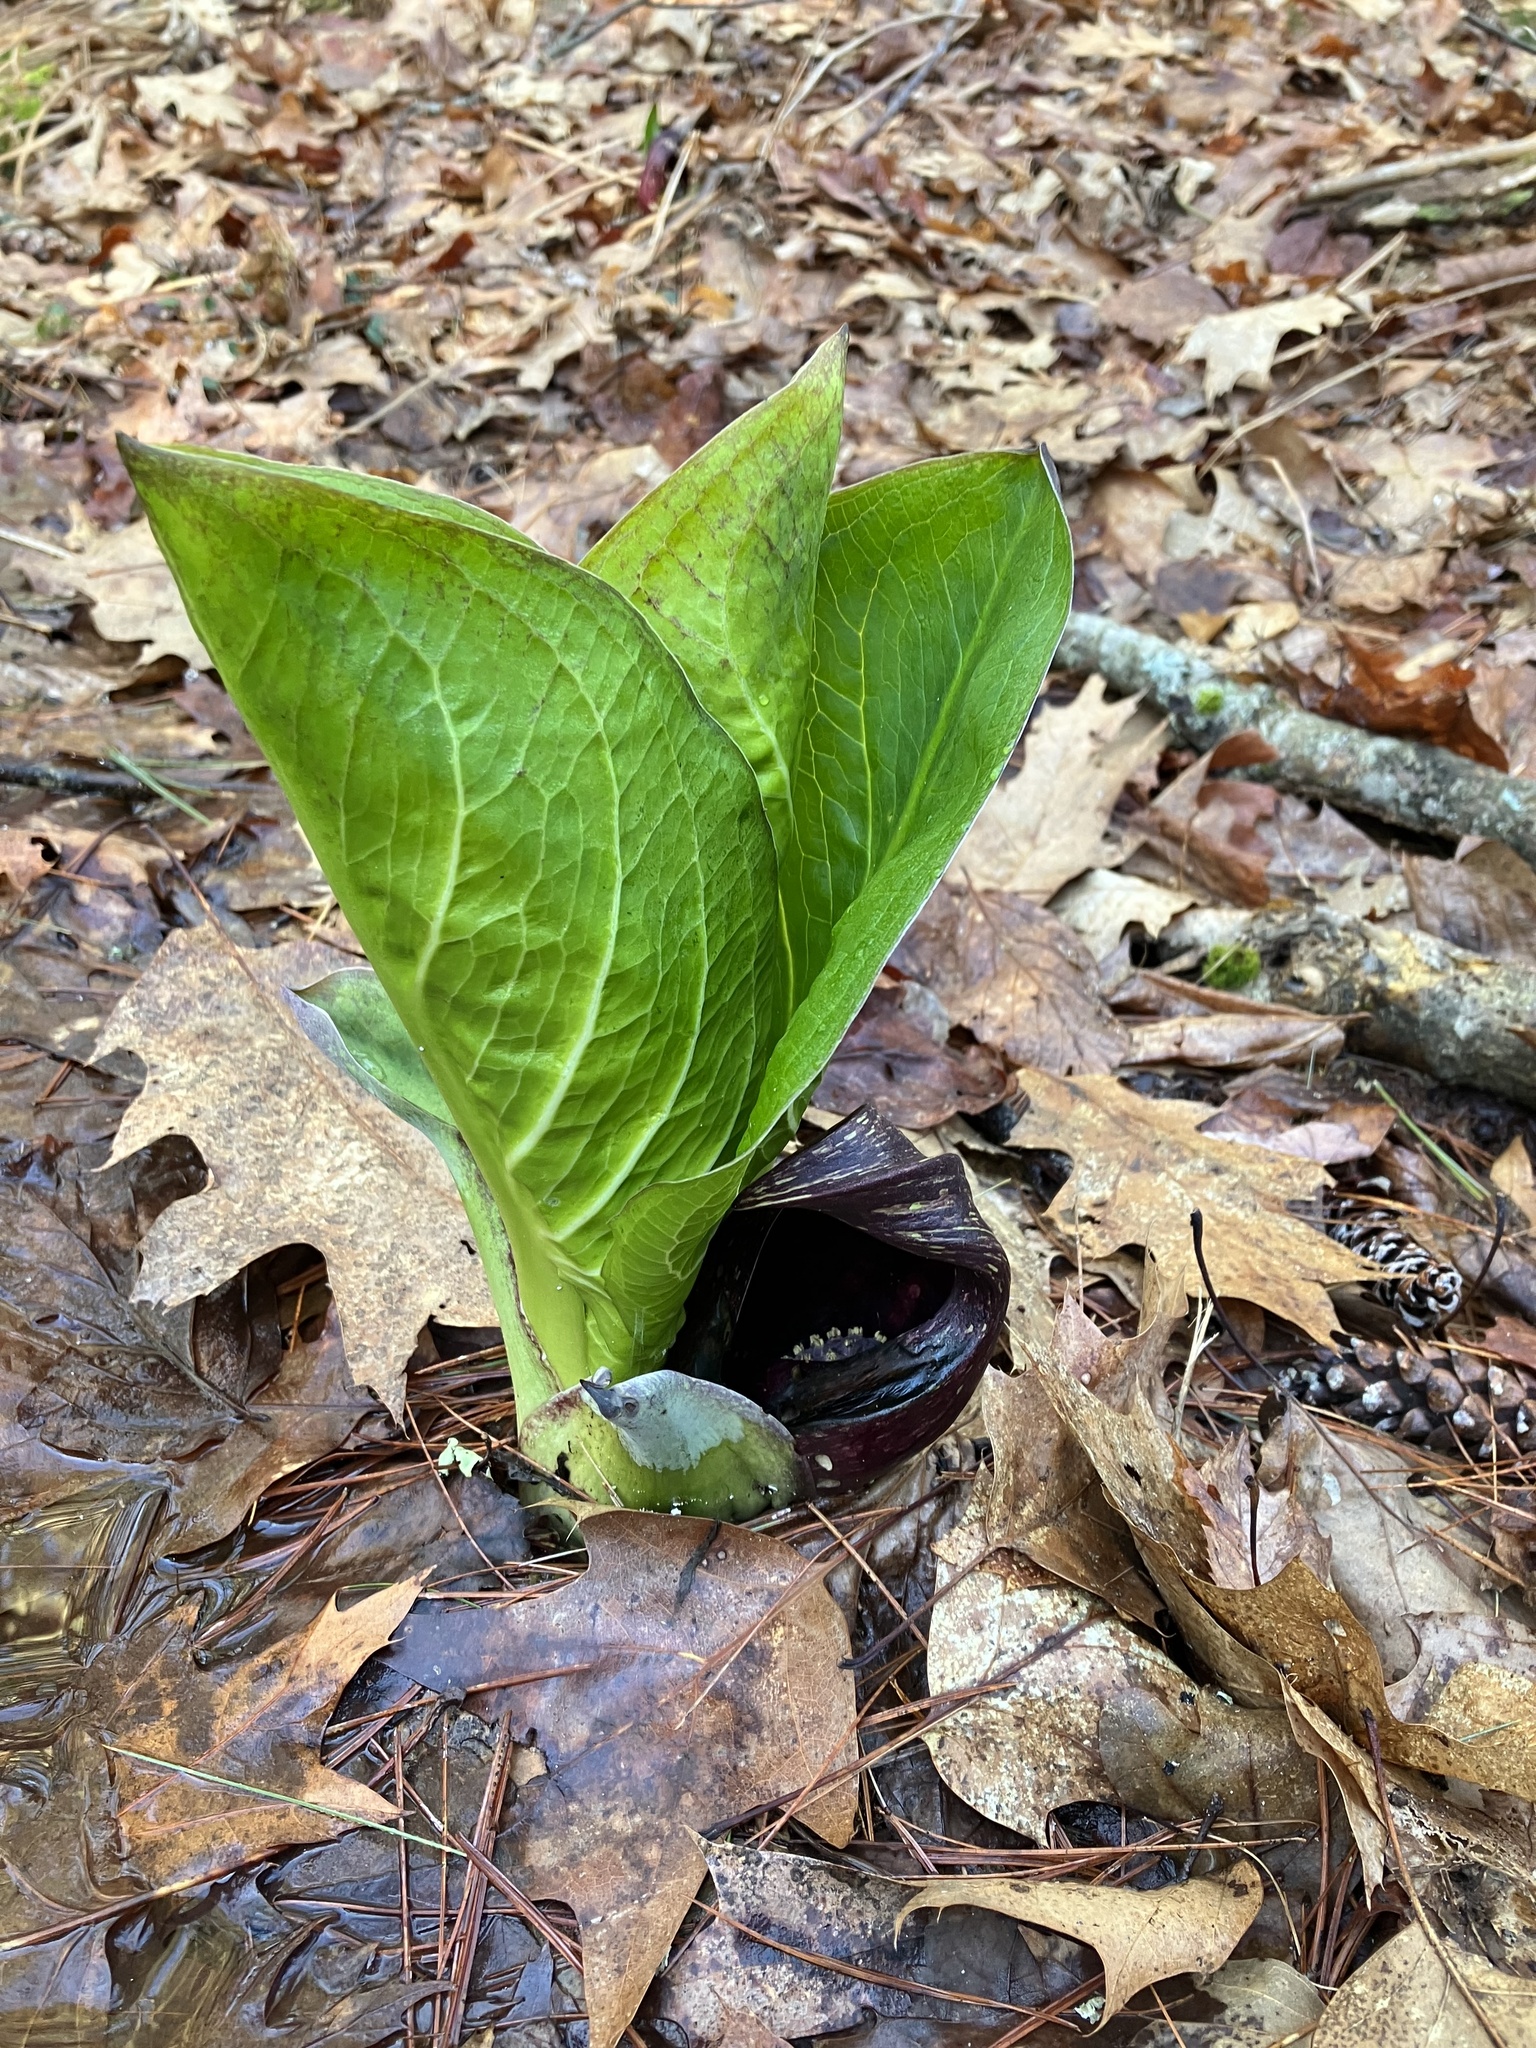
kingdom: Plantae
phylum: Tracheophyta
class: Liliopsida
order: Alismatales
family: Araceae
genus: Symplocarpus
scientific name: Symplocarpus foetidus
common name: Eastern skunk cabbage
